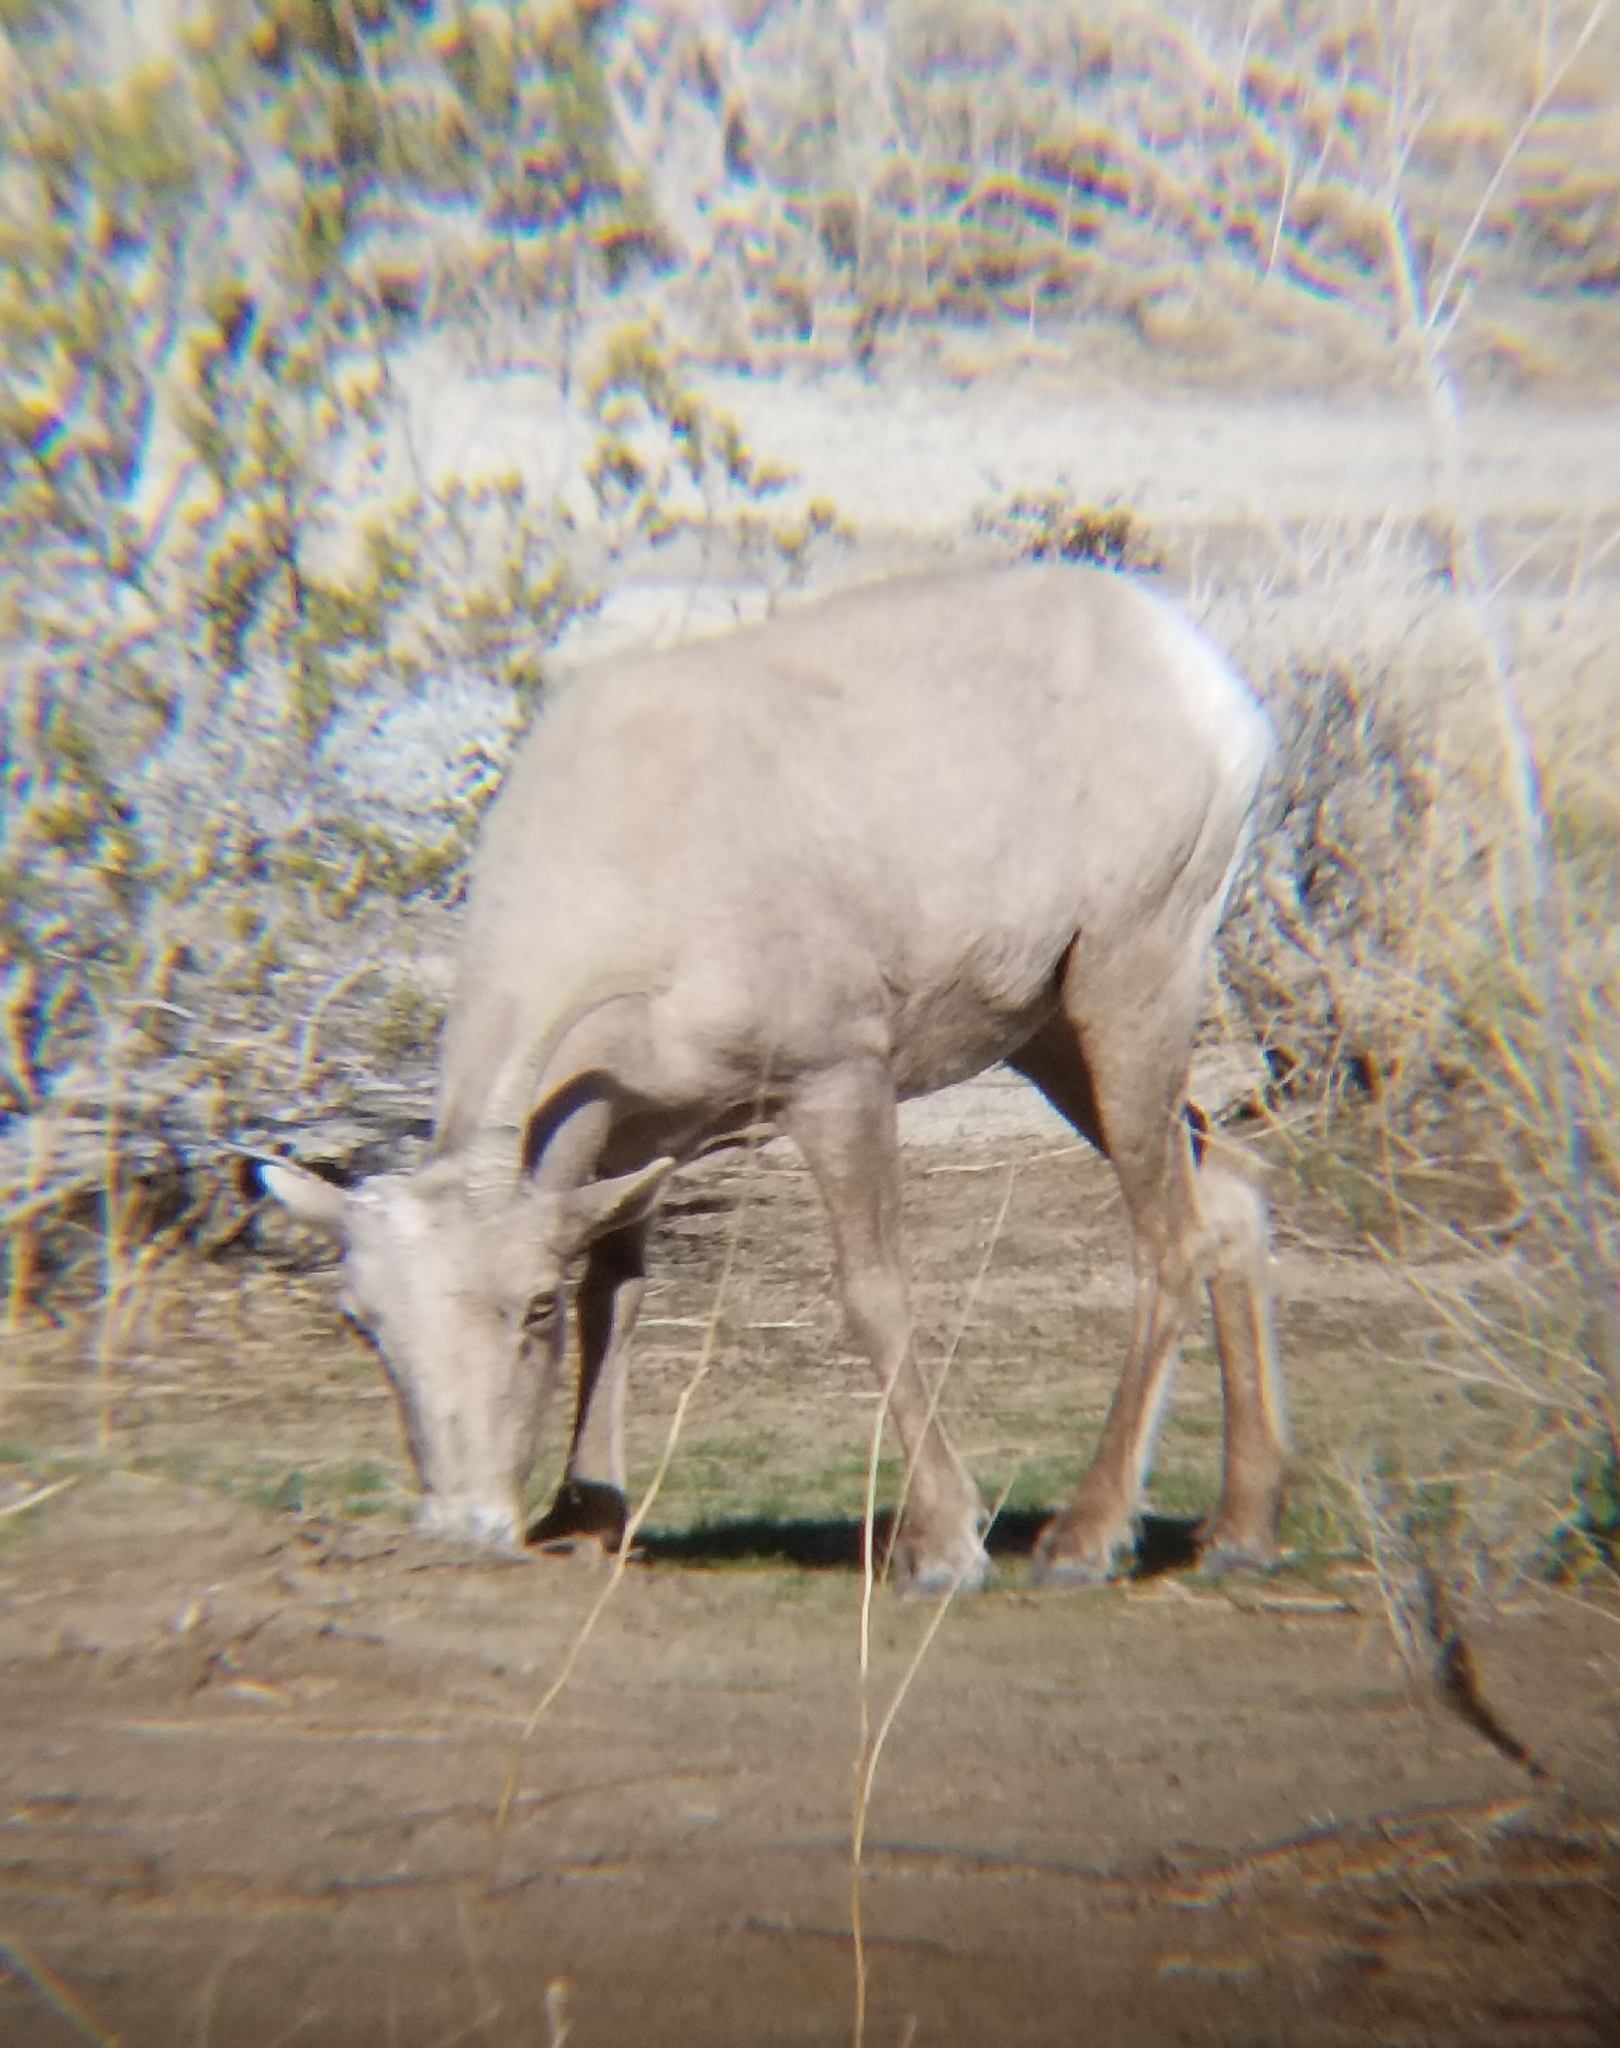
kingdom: Animalia
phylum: Chordata
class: Mammalia
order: Artiodactyla
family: Bovidae
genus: Ovis
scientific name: Ovis canadensis
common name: Bighorn sheep
